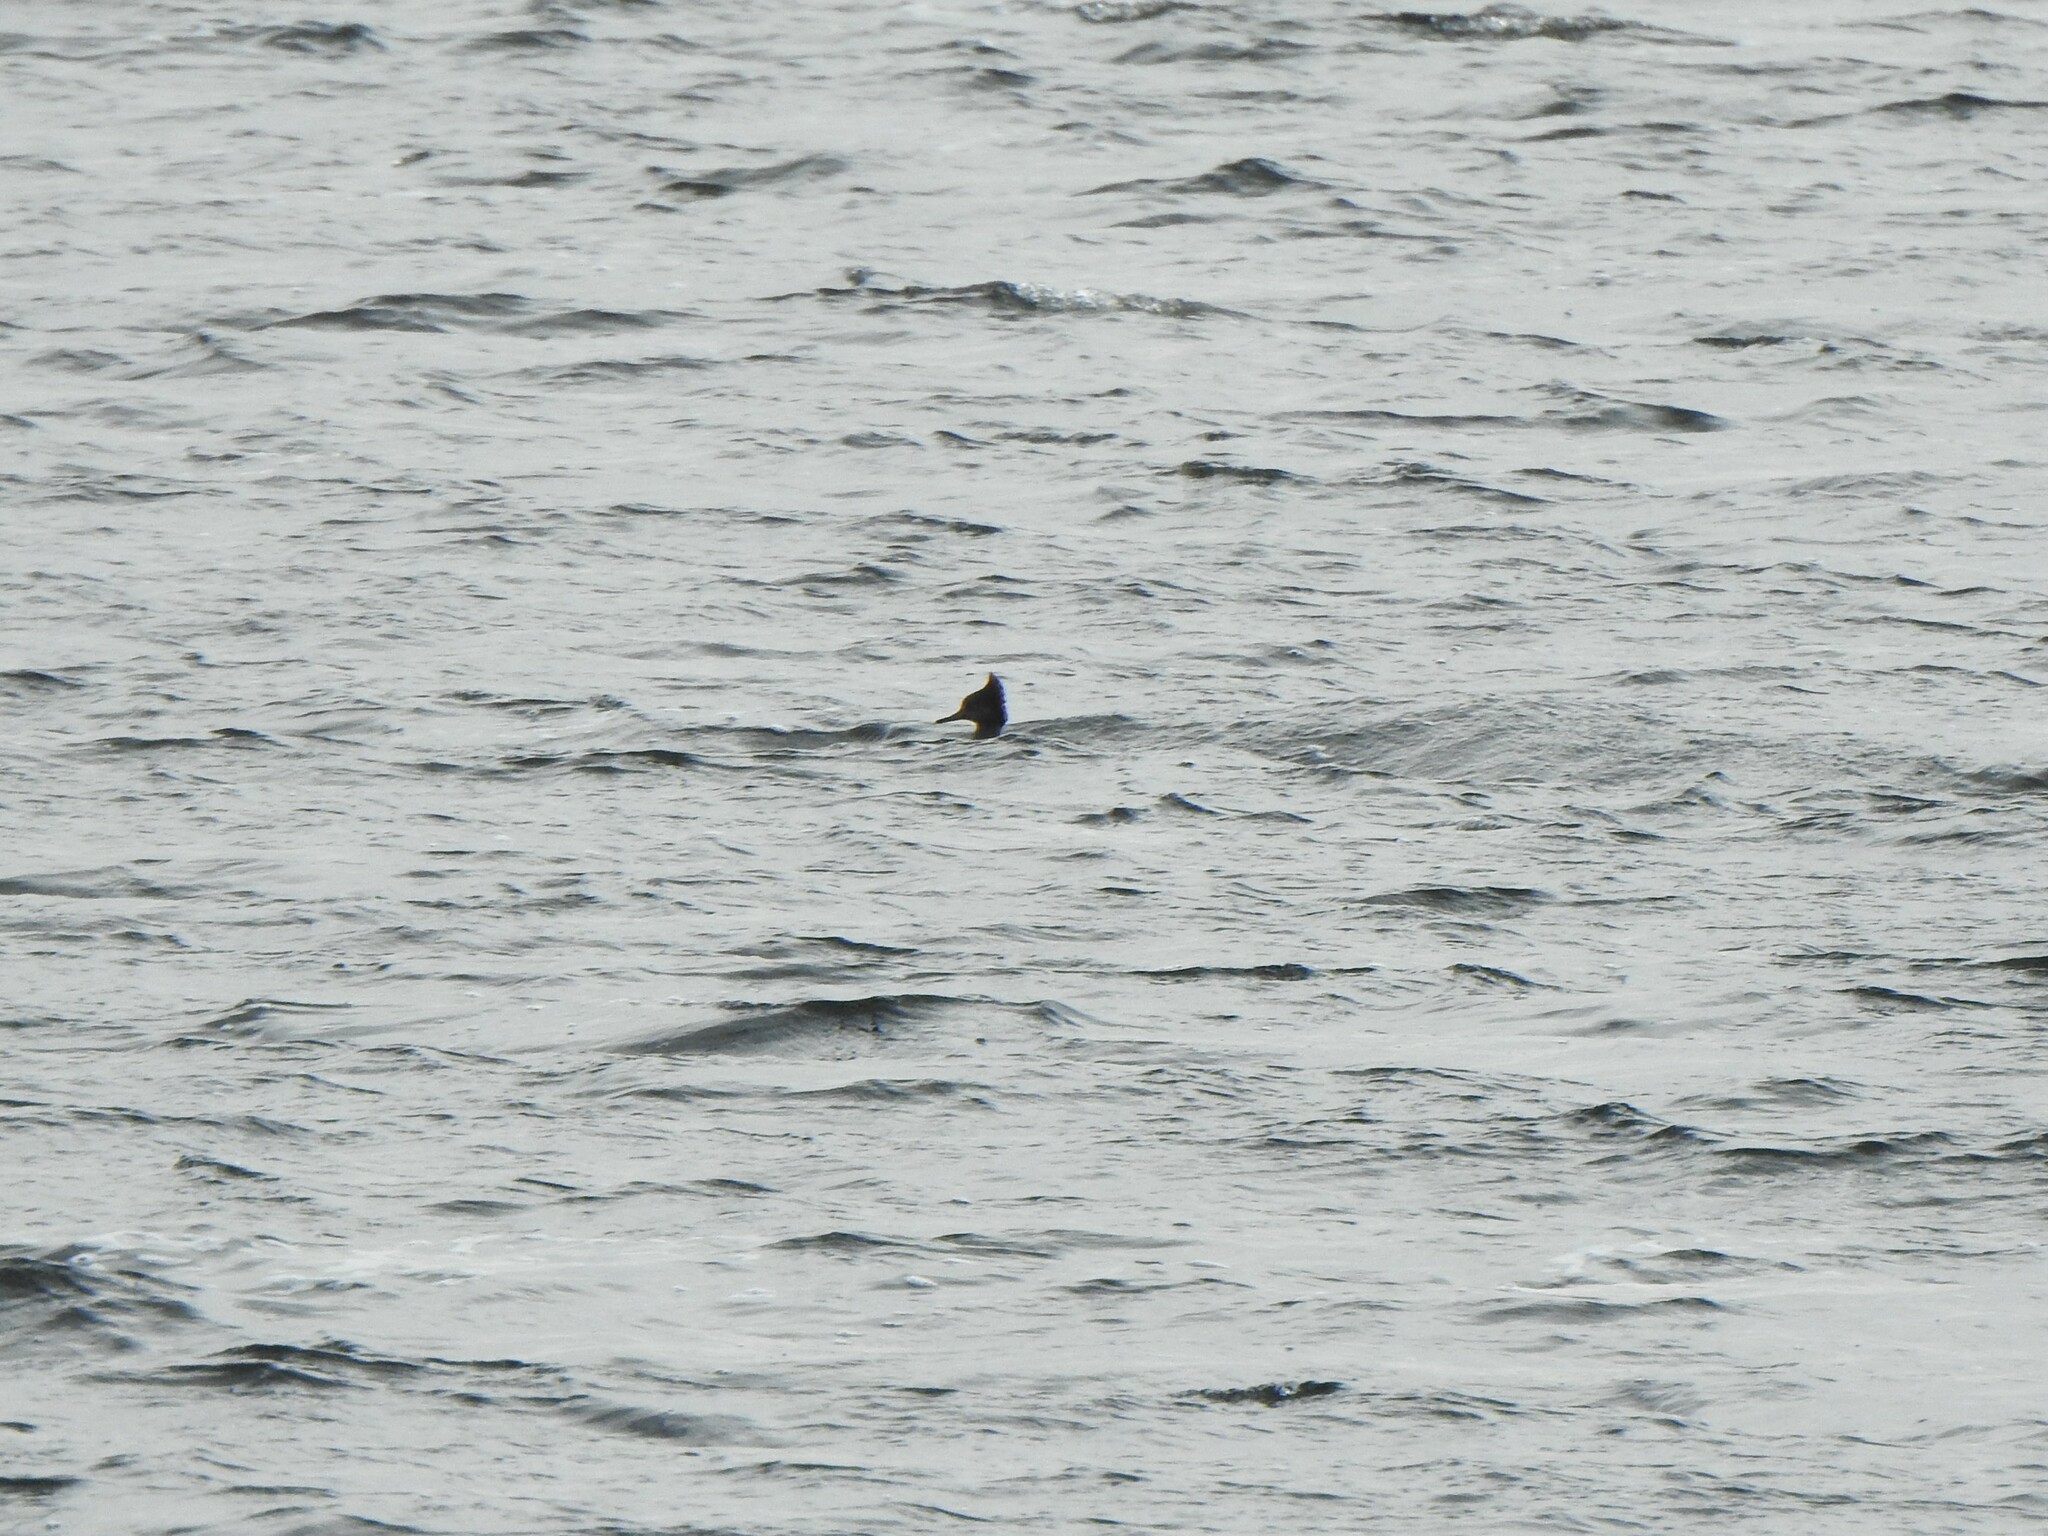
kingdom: Animalia
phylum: Chordata
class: Aves
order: Anseriformes
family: Anatidae
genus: Lophodytes
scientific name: Lophodytes cucullatus
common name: Hooded merganser
